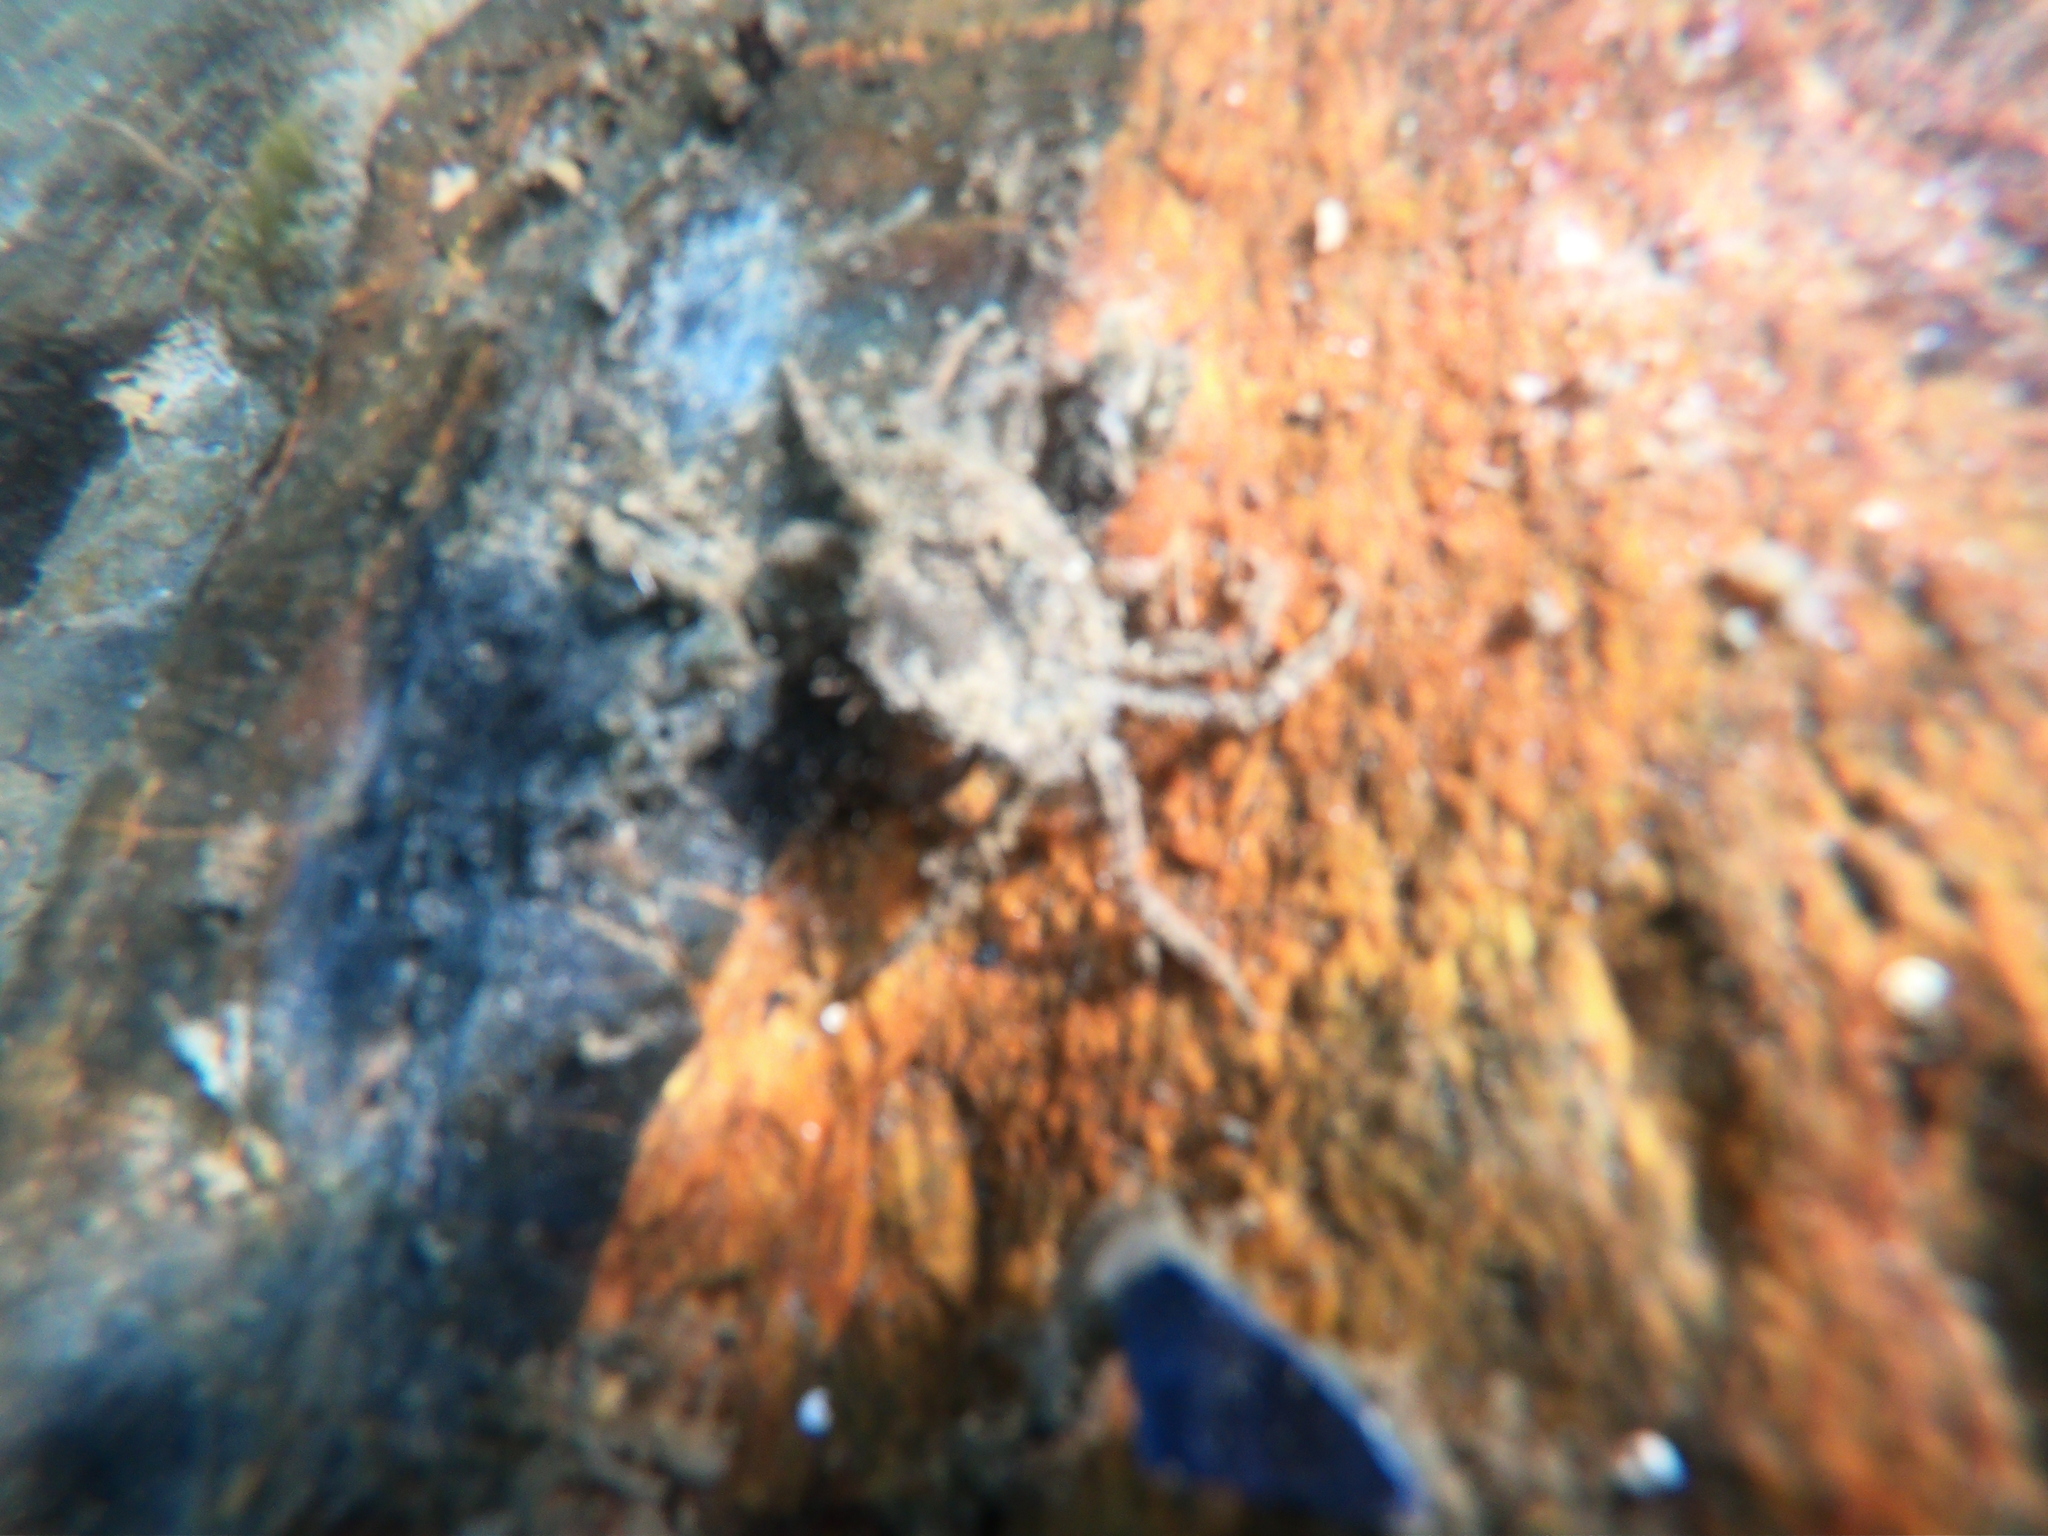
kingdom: Animalia
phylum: Arthropoda
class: Malacostraca
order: Decapoda
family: Hymenosomatidae
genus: Halicarcinus
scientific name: Halicarcinus planatus
